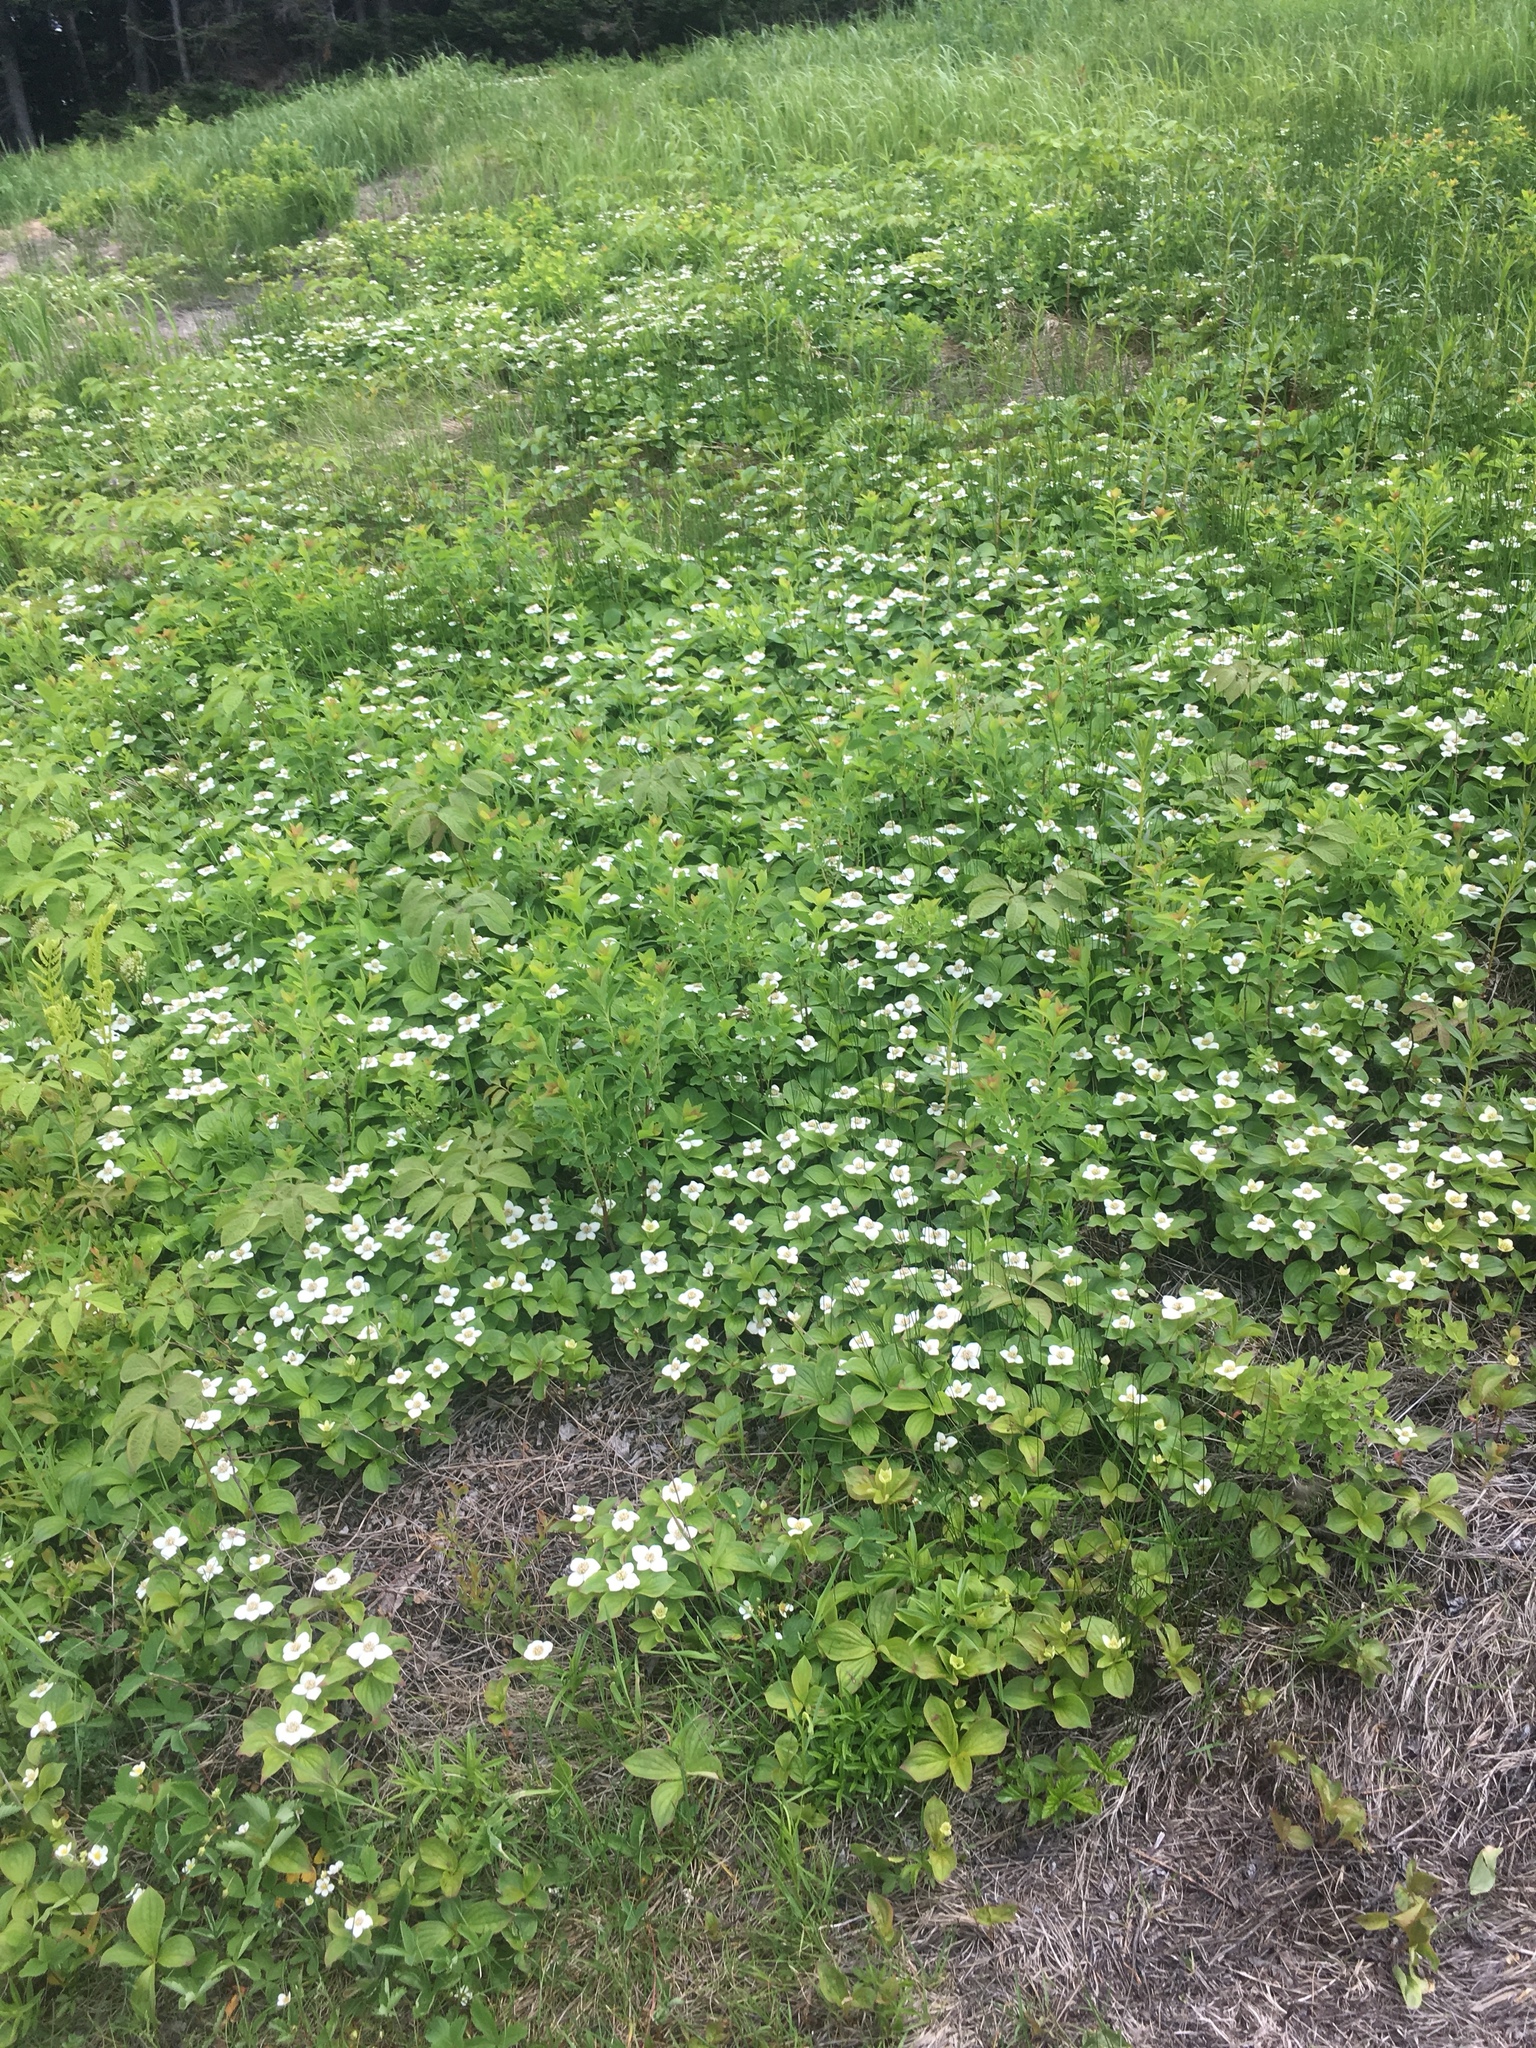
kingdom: Plantae
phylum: Tracheophyta
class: Magnoliopsida
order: Cornales
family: Cornaceae
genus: Cornus
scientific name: Cornus canadensis
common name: Creeping dogwood
